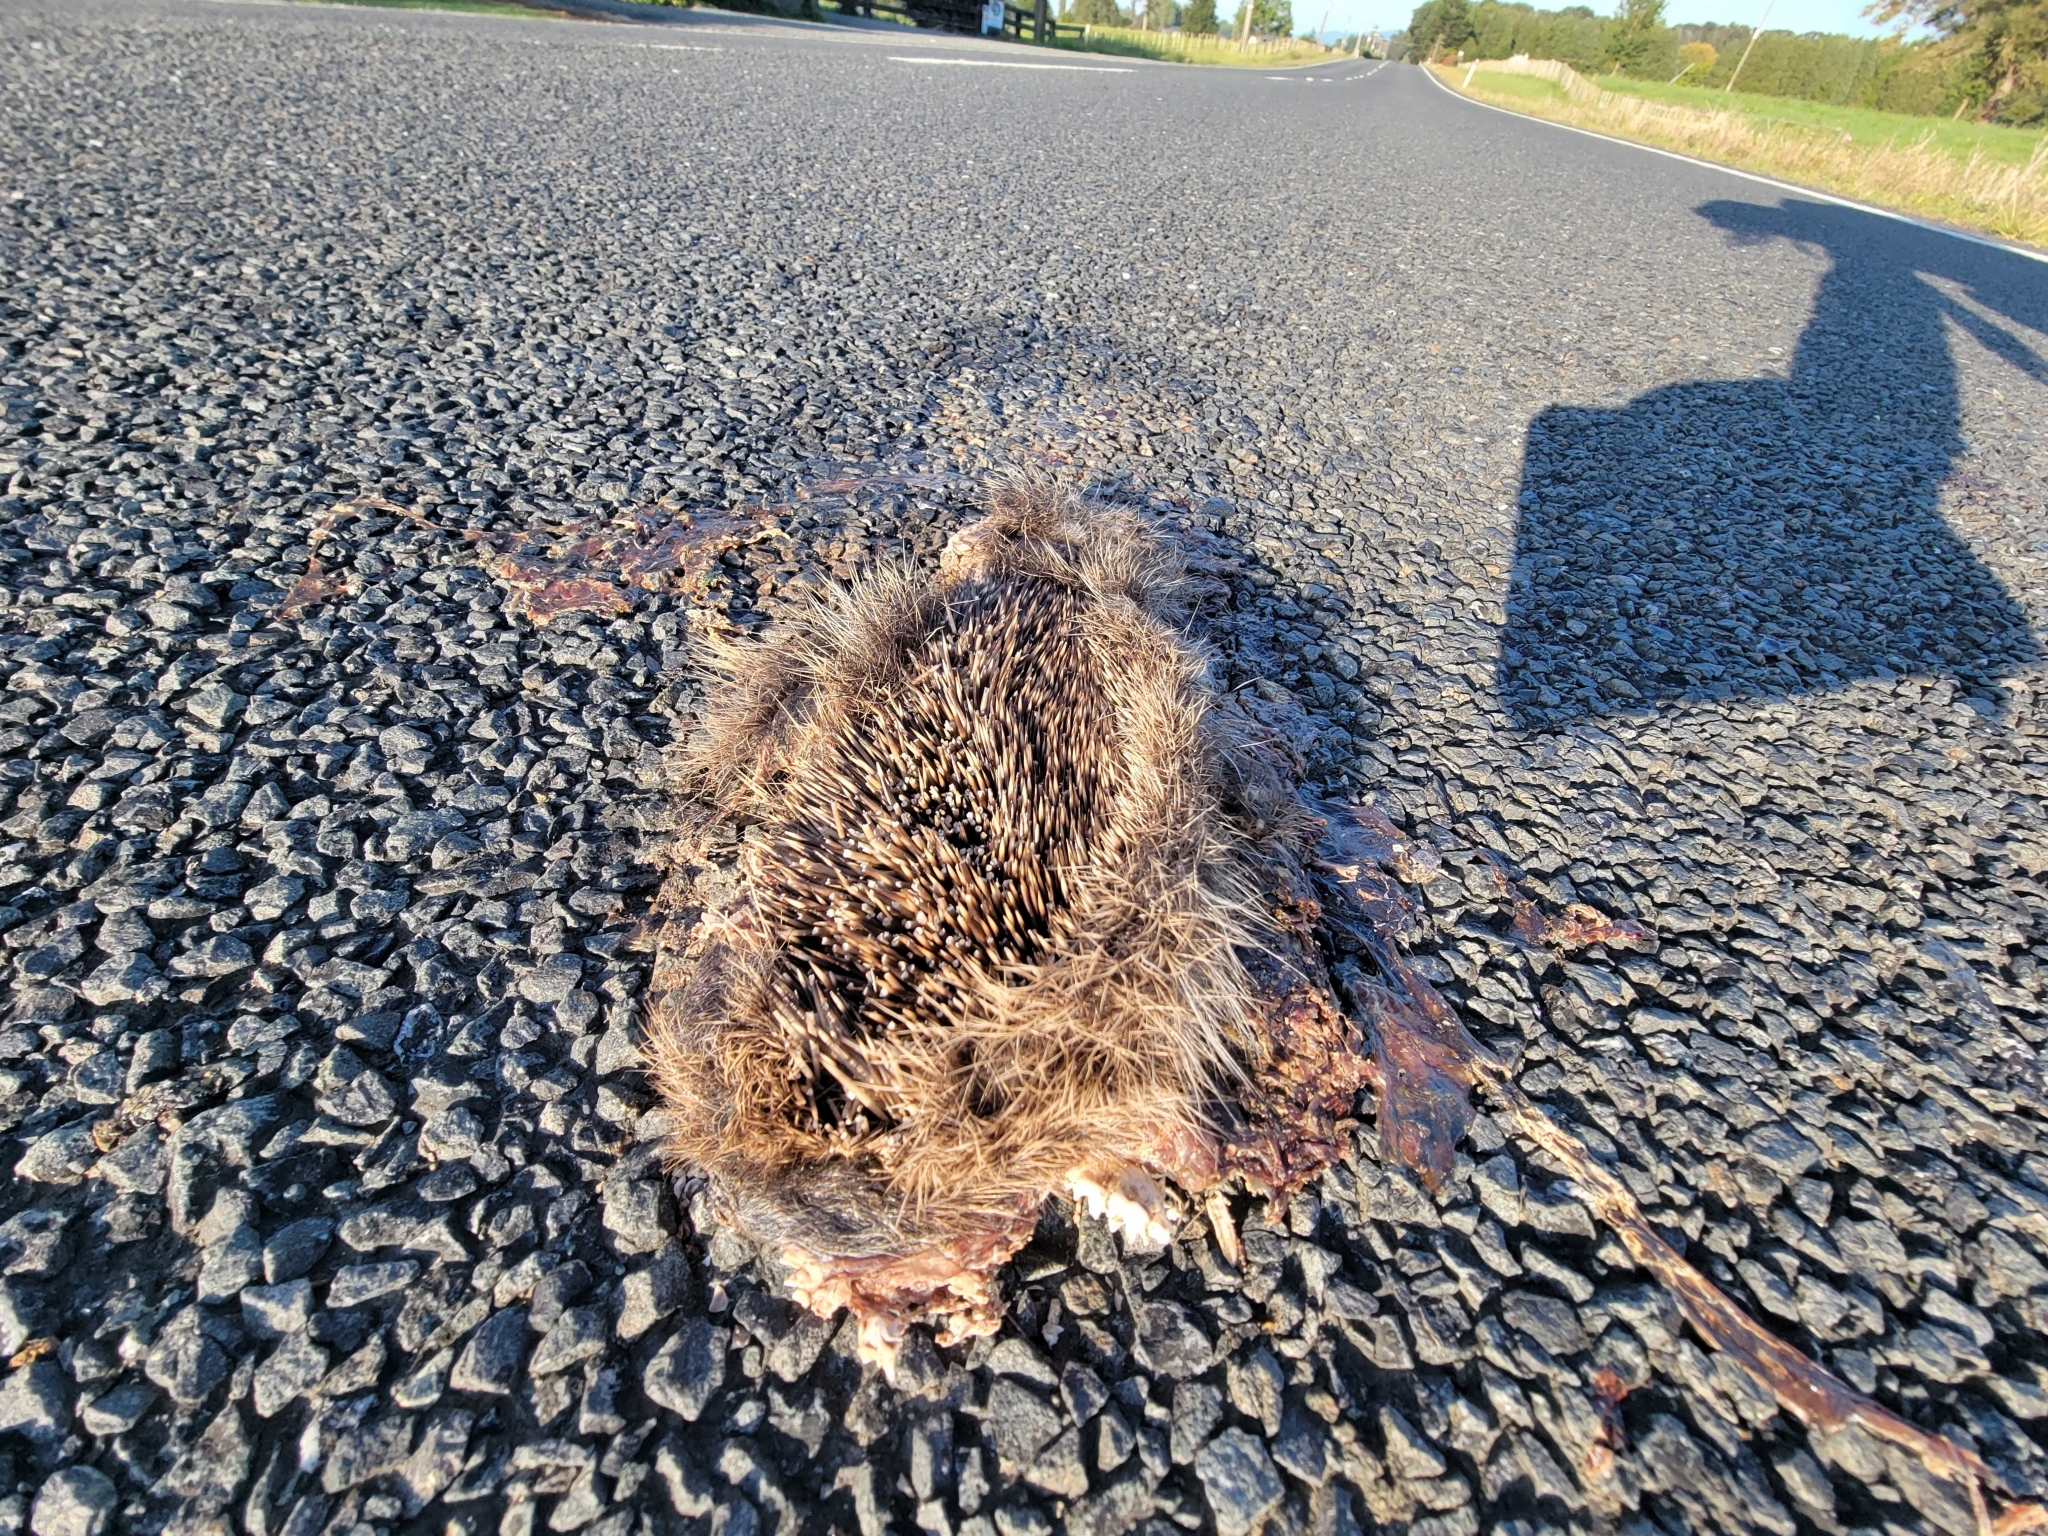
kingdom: Animalia
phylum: Chordata
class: Mammalia
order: Erinaceomorpha
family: Erinaceidae
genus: Erinaceus
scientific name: Erinaceus europaeus
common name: West european hedgehog
